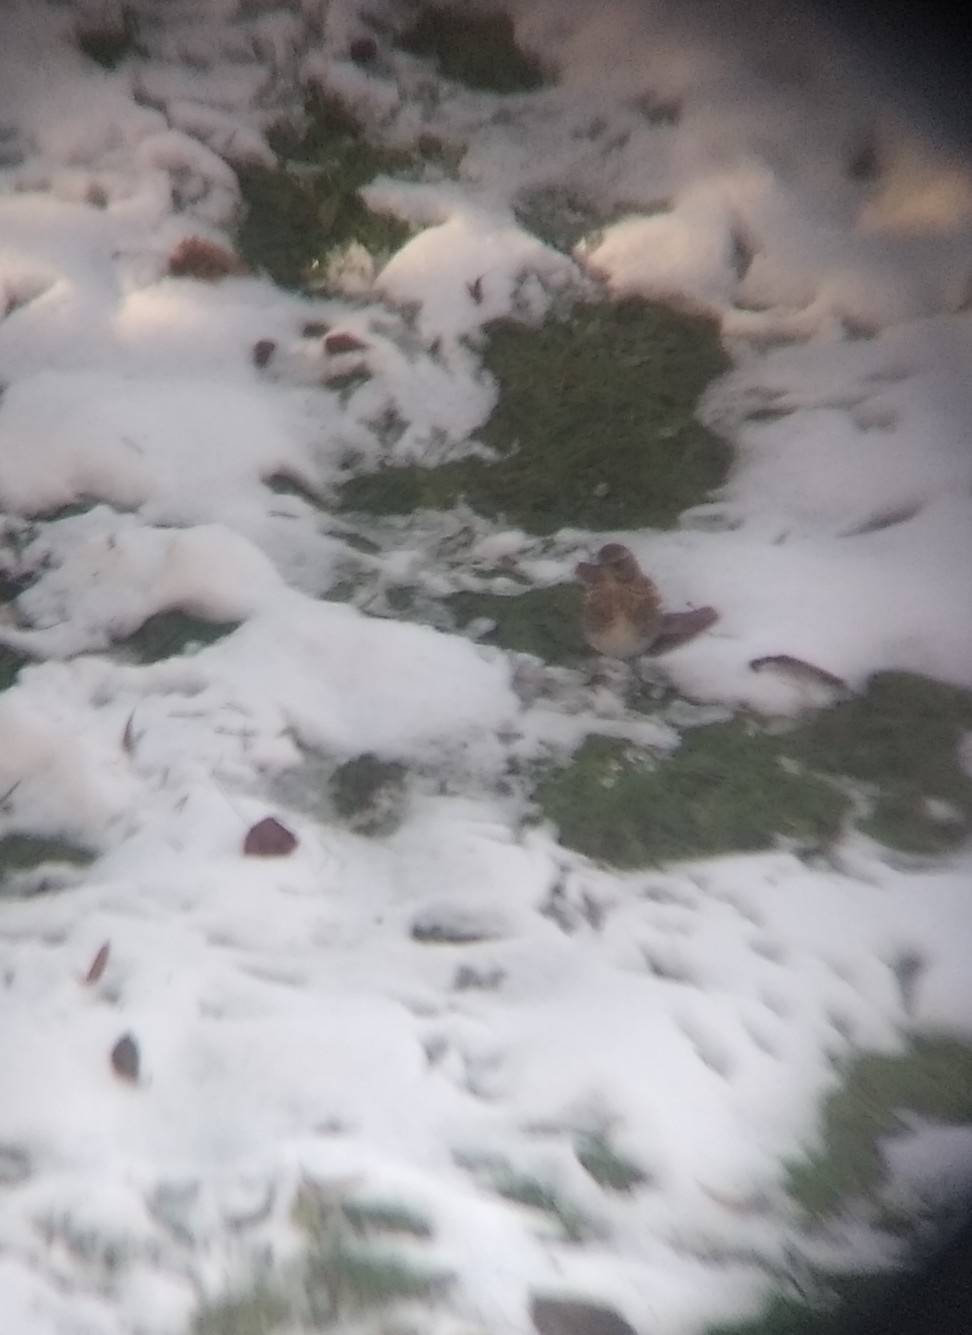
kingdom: Animalia
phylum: Chordata
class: Aves
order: Passeriformes
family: Turdidae
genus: Turdus
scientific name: Turdus pilaris
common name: Fieldfare
